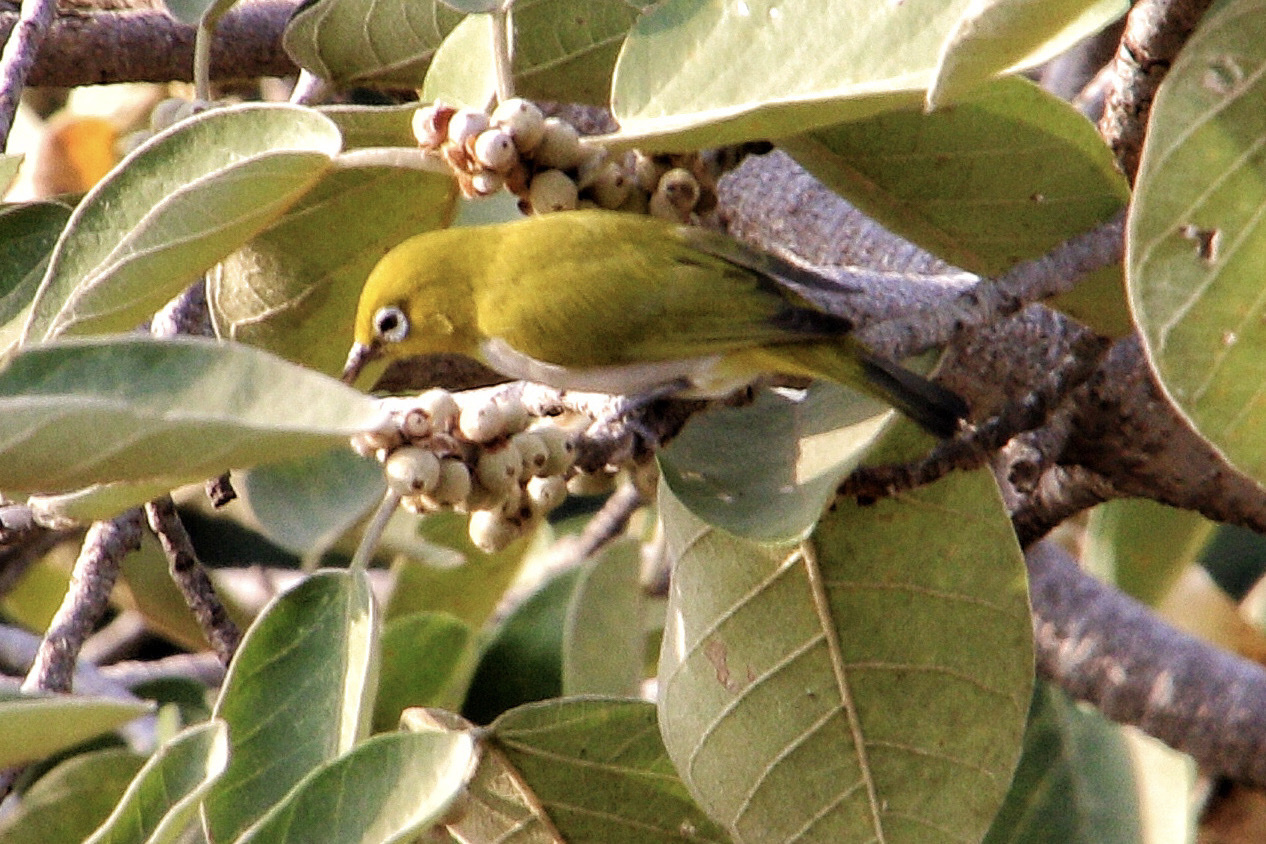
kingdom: Animalia
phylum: Chordata
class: Aves
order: Passeriformes
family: Zosteropidae
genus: Zosterops
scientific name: Zosterops palpebrosus
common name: Oriental white-eye
